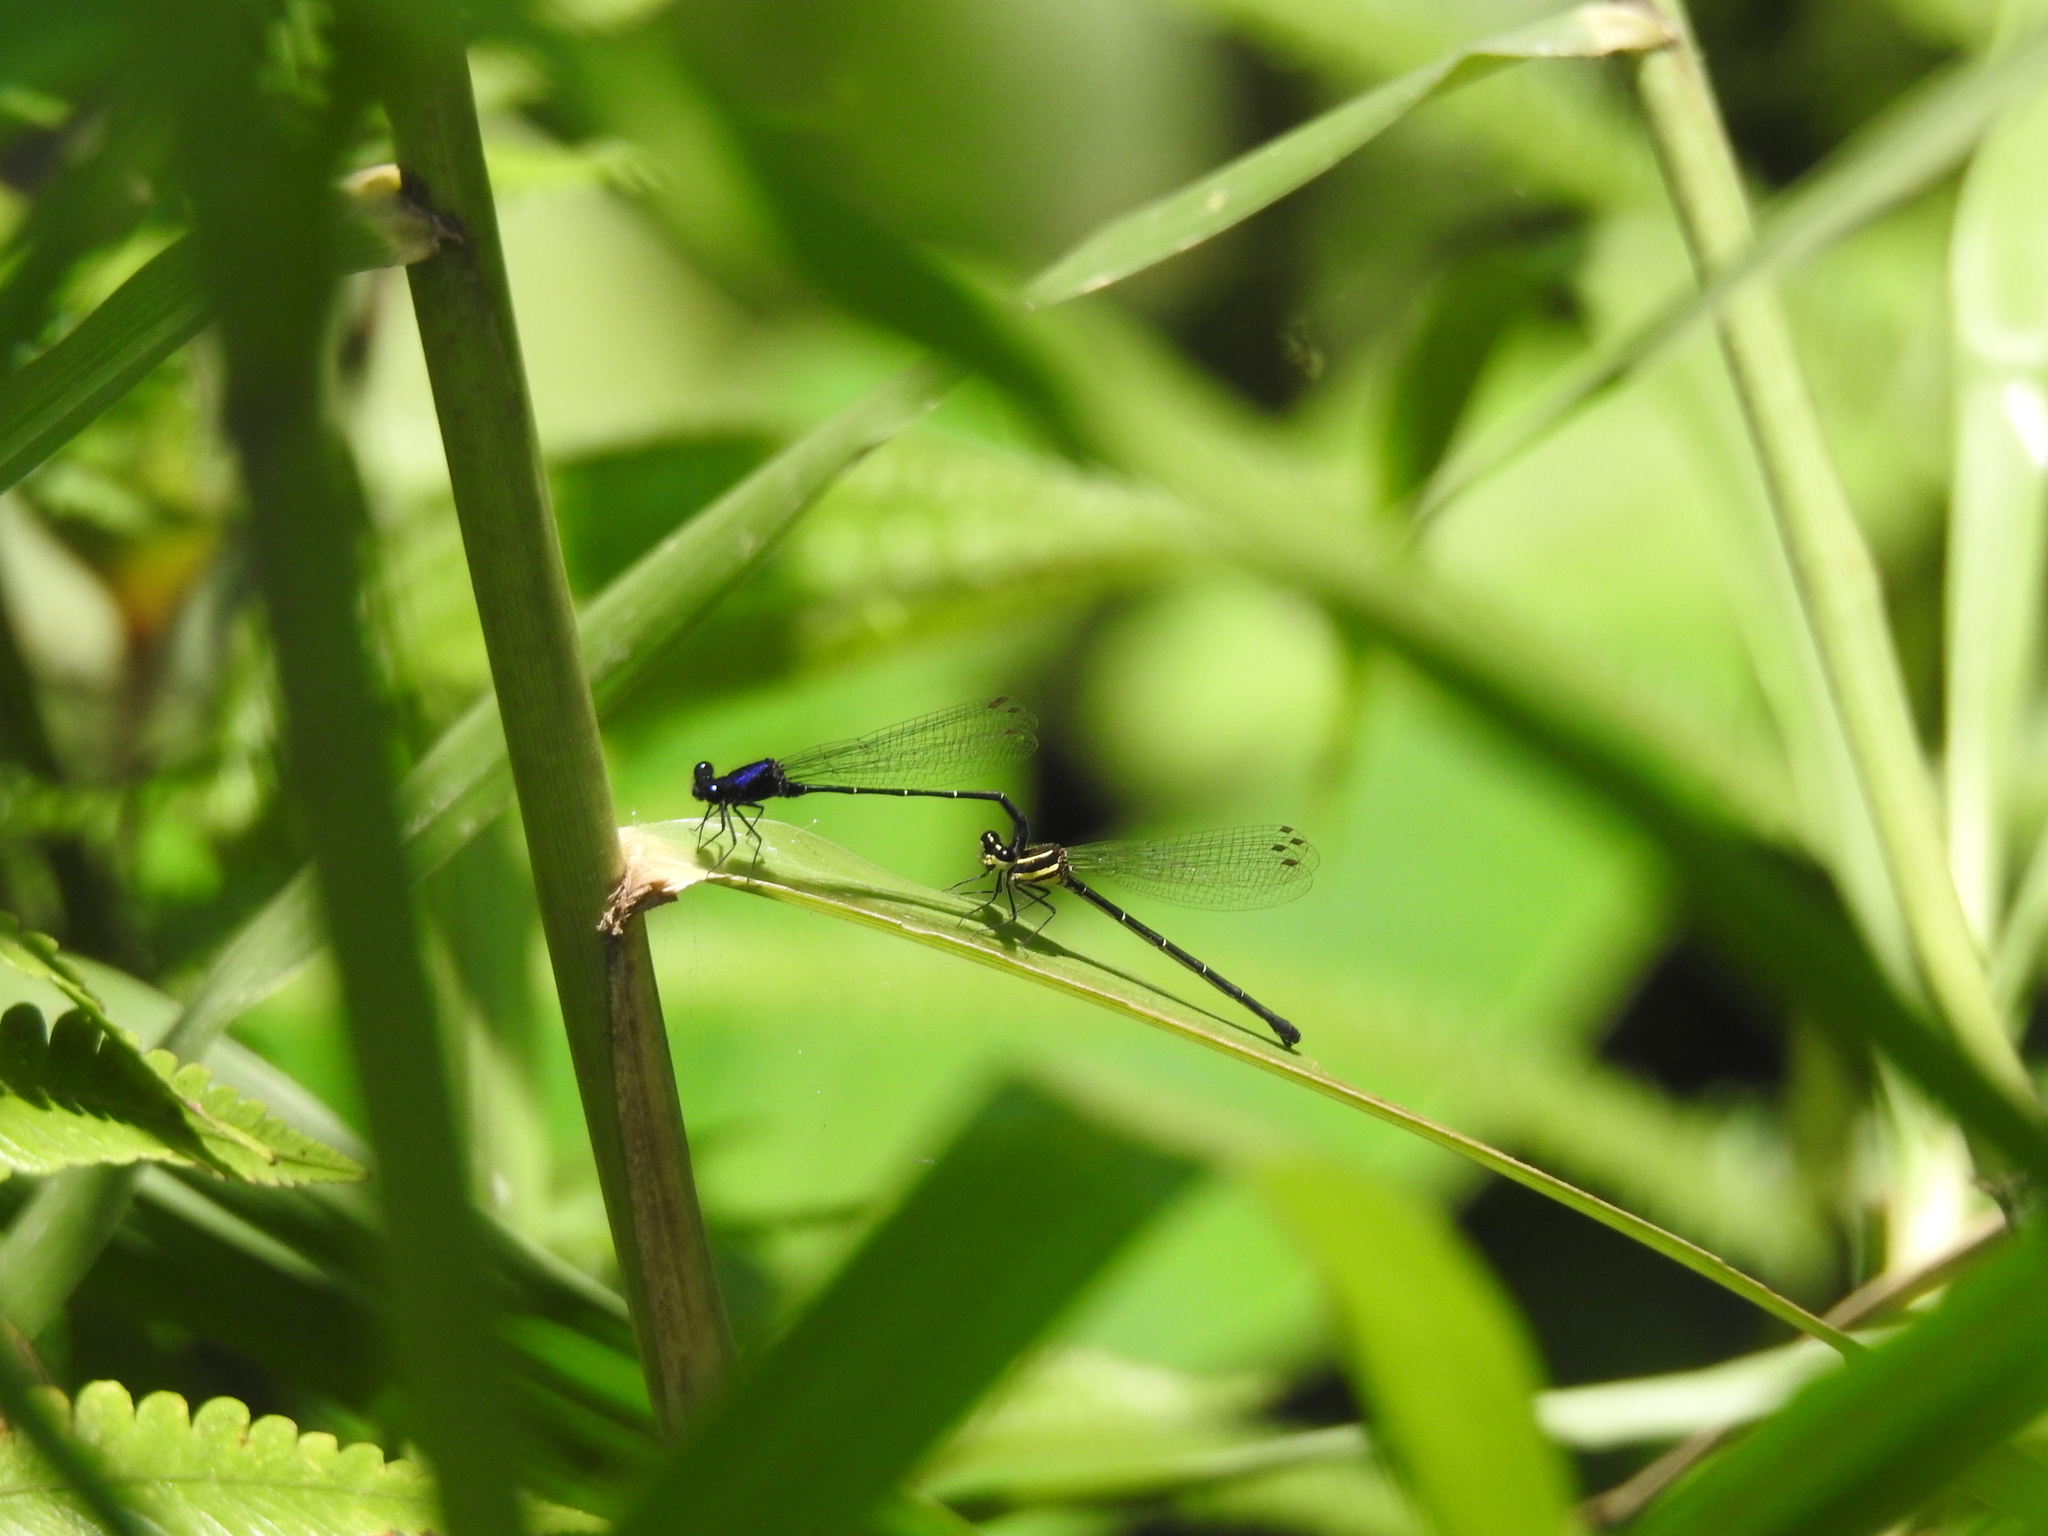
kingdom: Animalia
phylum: Arthropoda
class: Insecta
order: Odonata
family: Platycnemididae
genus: Onychargia
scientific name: Onychargia atrocyana
